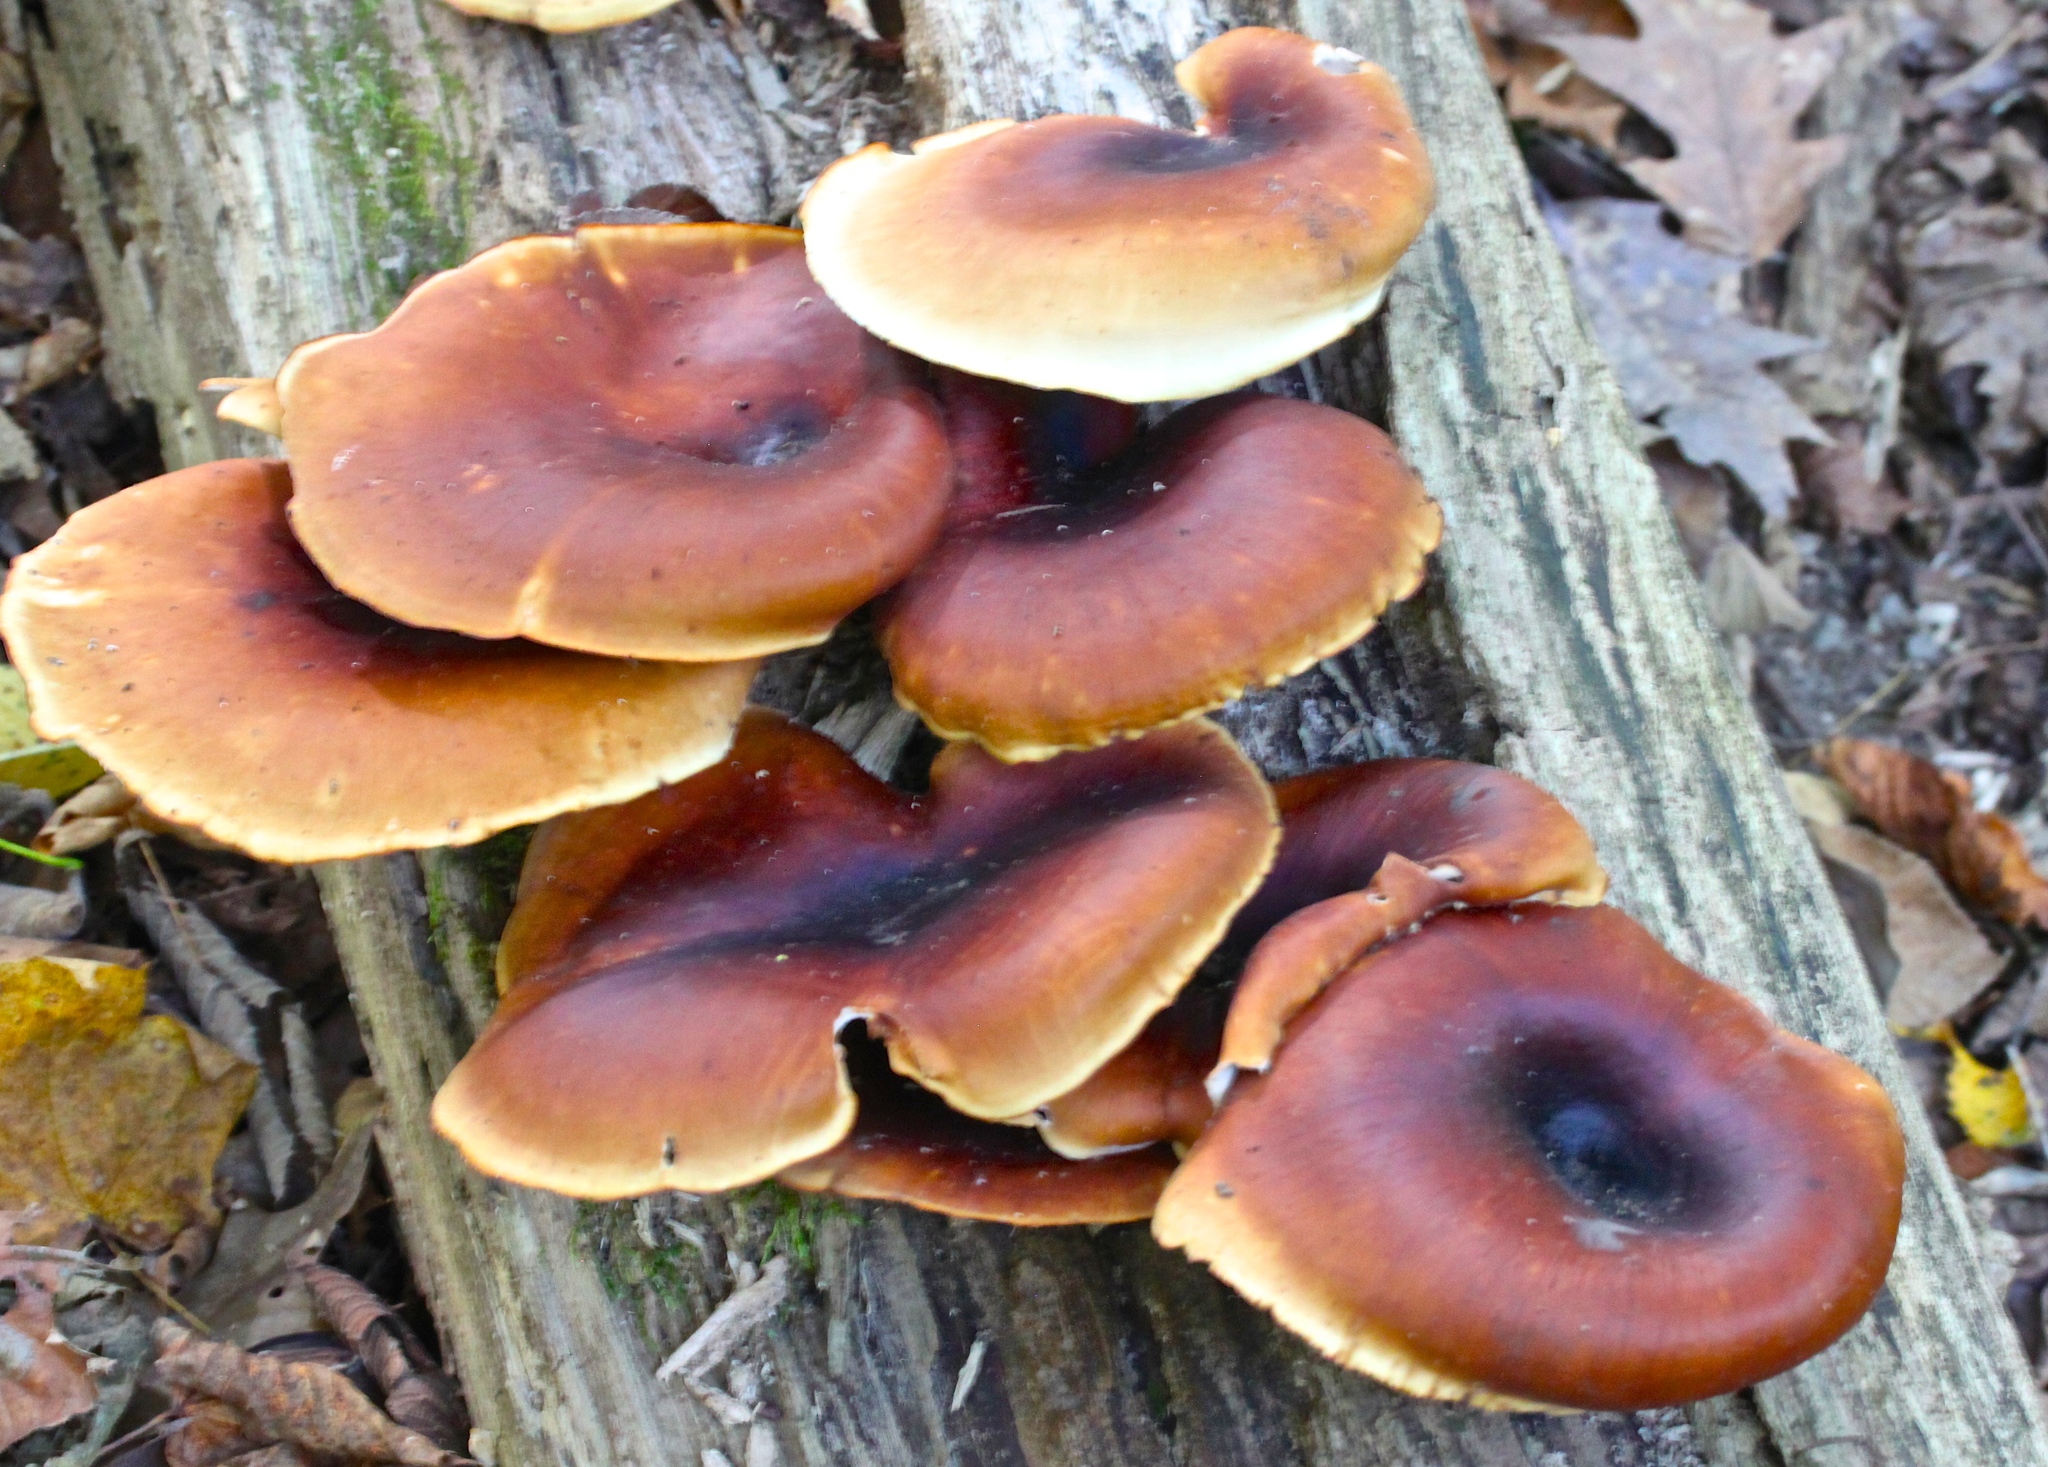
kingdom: Fungi
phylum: Basidiomycota
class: Agaricomycetes
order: Polyporales
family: Polyporaceae
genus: Picipes
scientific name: Picipes badius
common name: Bay polypore
